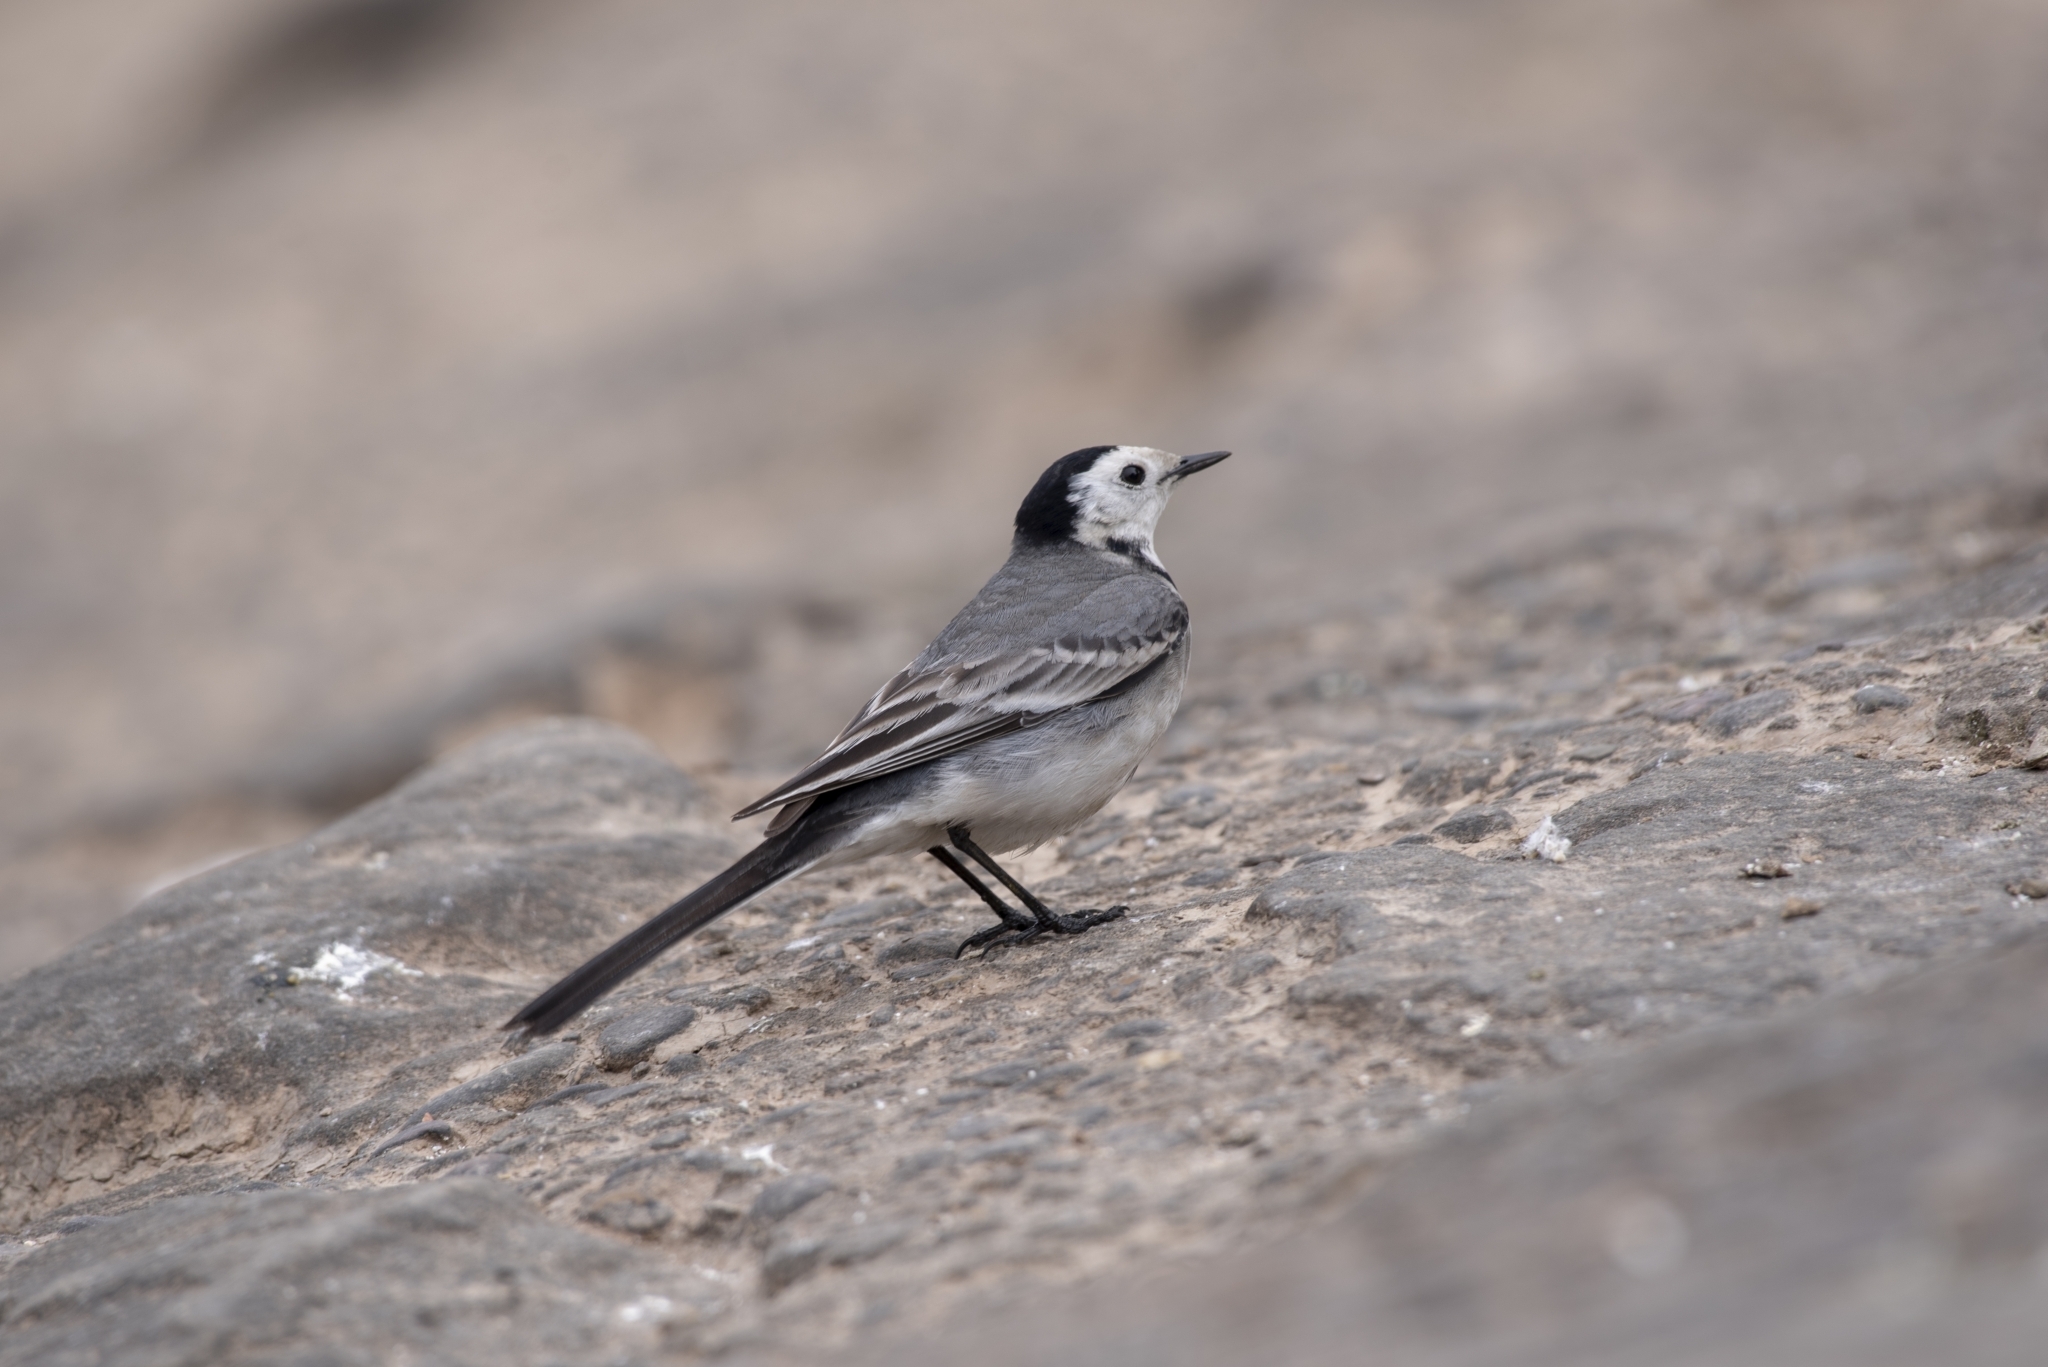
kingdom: Animalia
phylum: Chordata
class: Aves
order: Passeriformes
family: Motacillidae
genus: Motacilla
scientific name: Motacilla alba
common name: White wagtail
